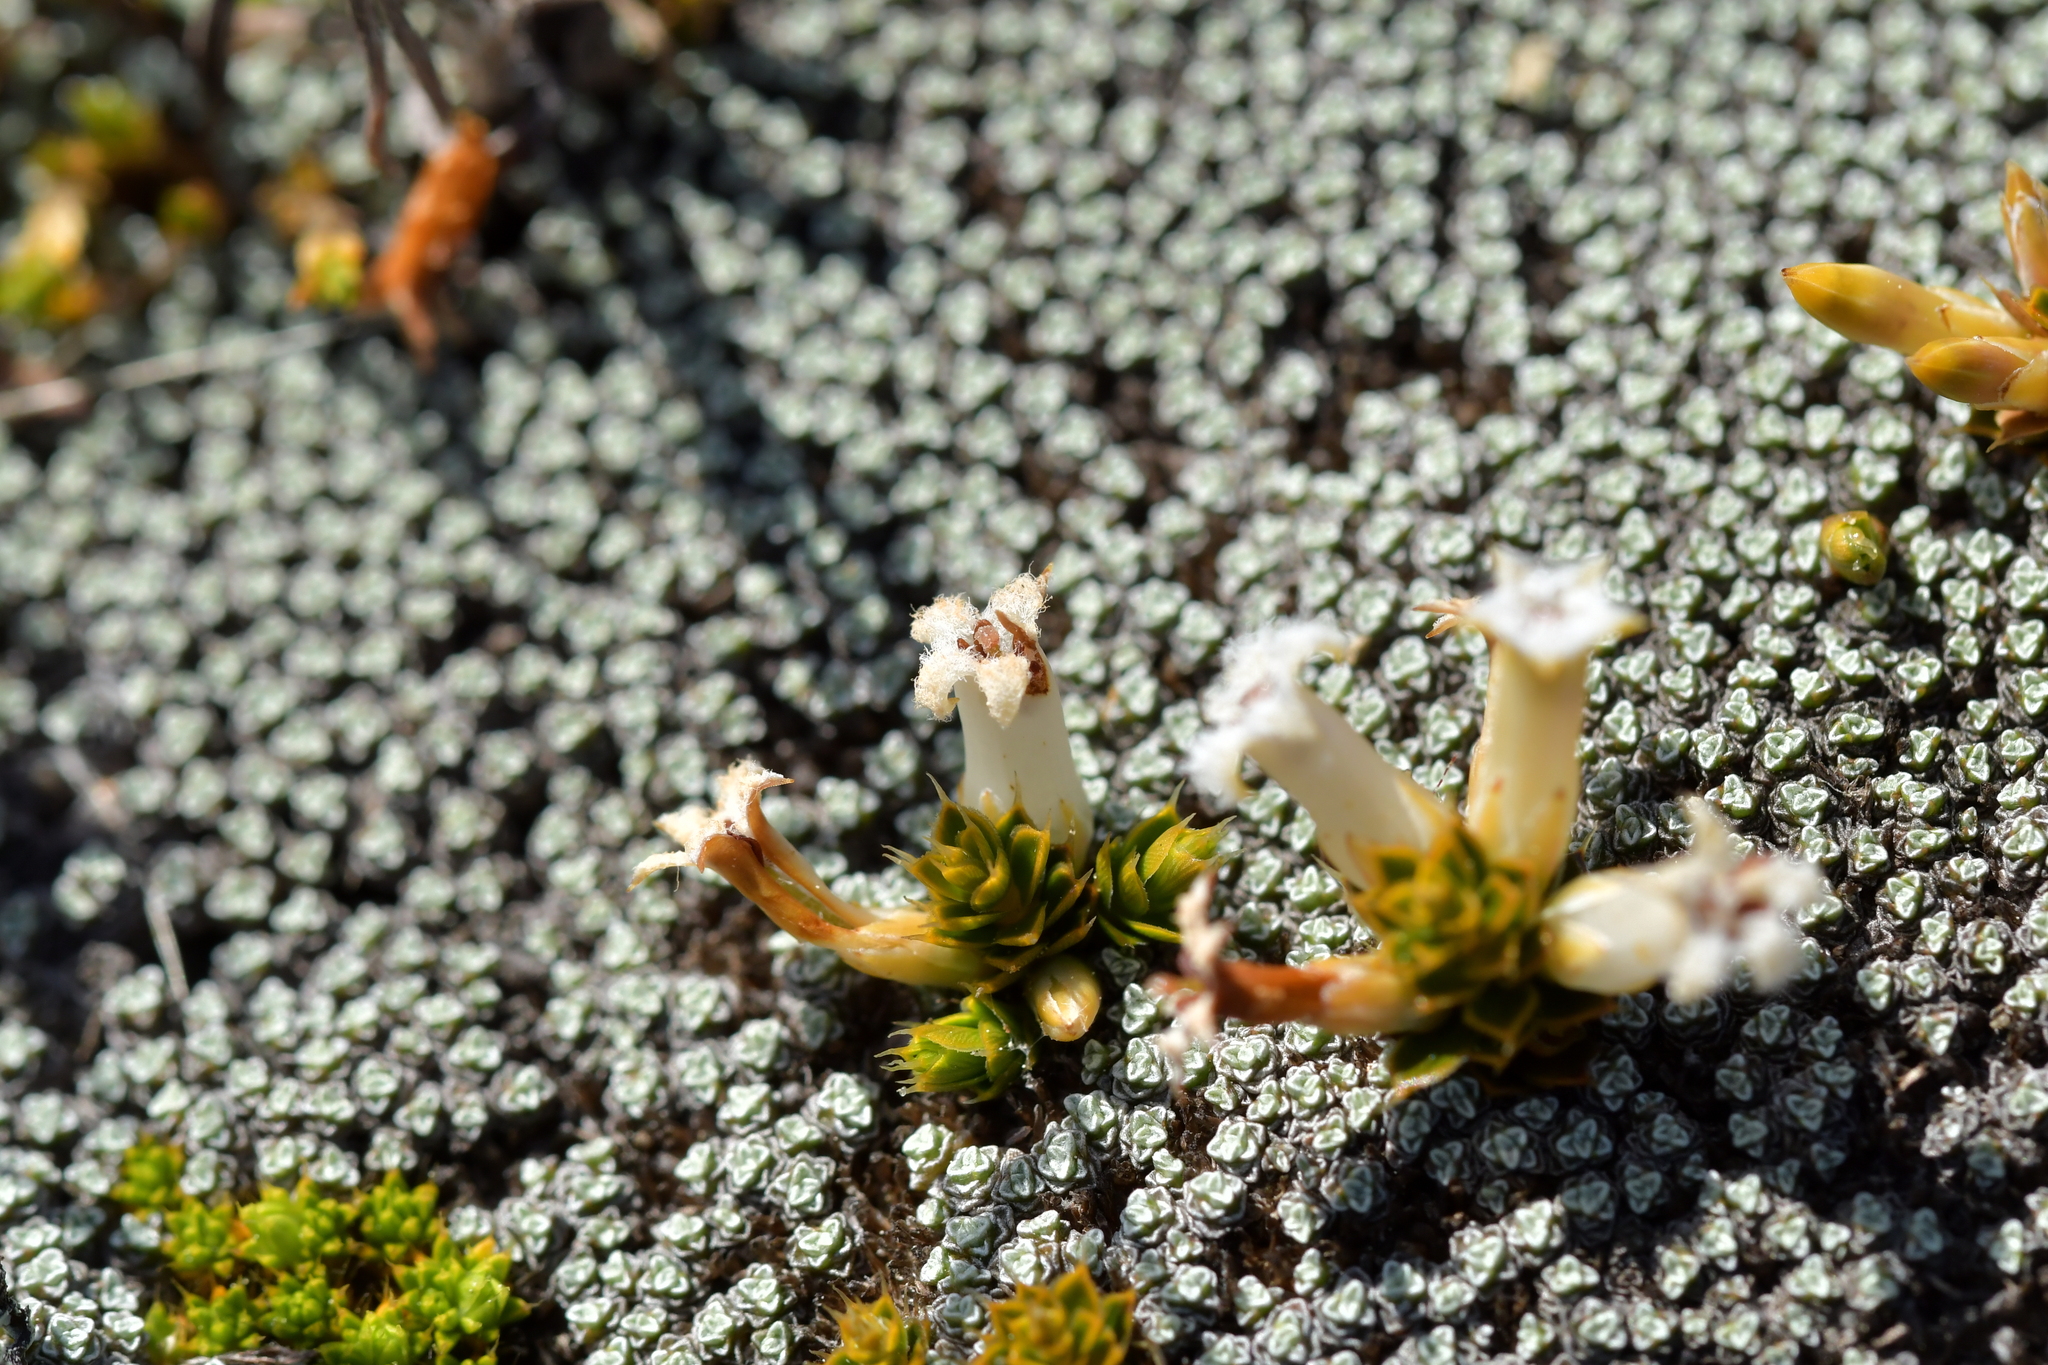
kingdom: Plantae
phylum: Tracheophyta
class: Magnoliopsida
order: Ericales
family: Ericaceae
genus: Styphelia
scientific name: Styphelia nana
